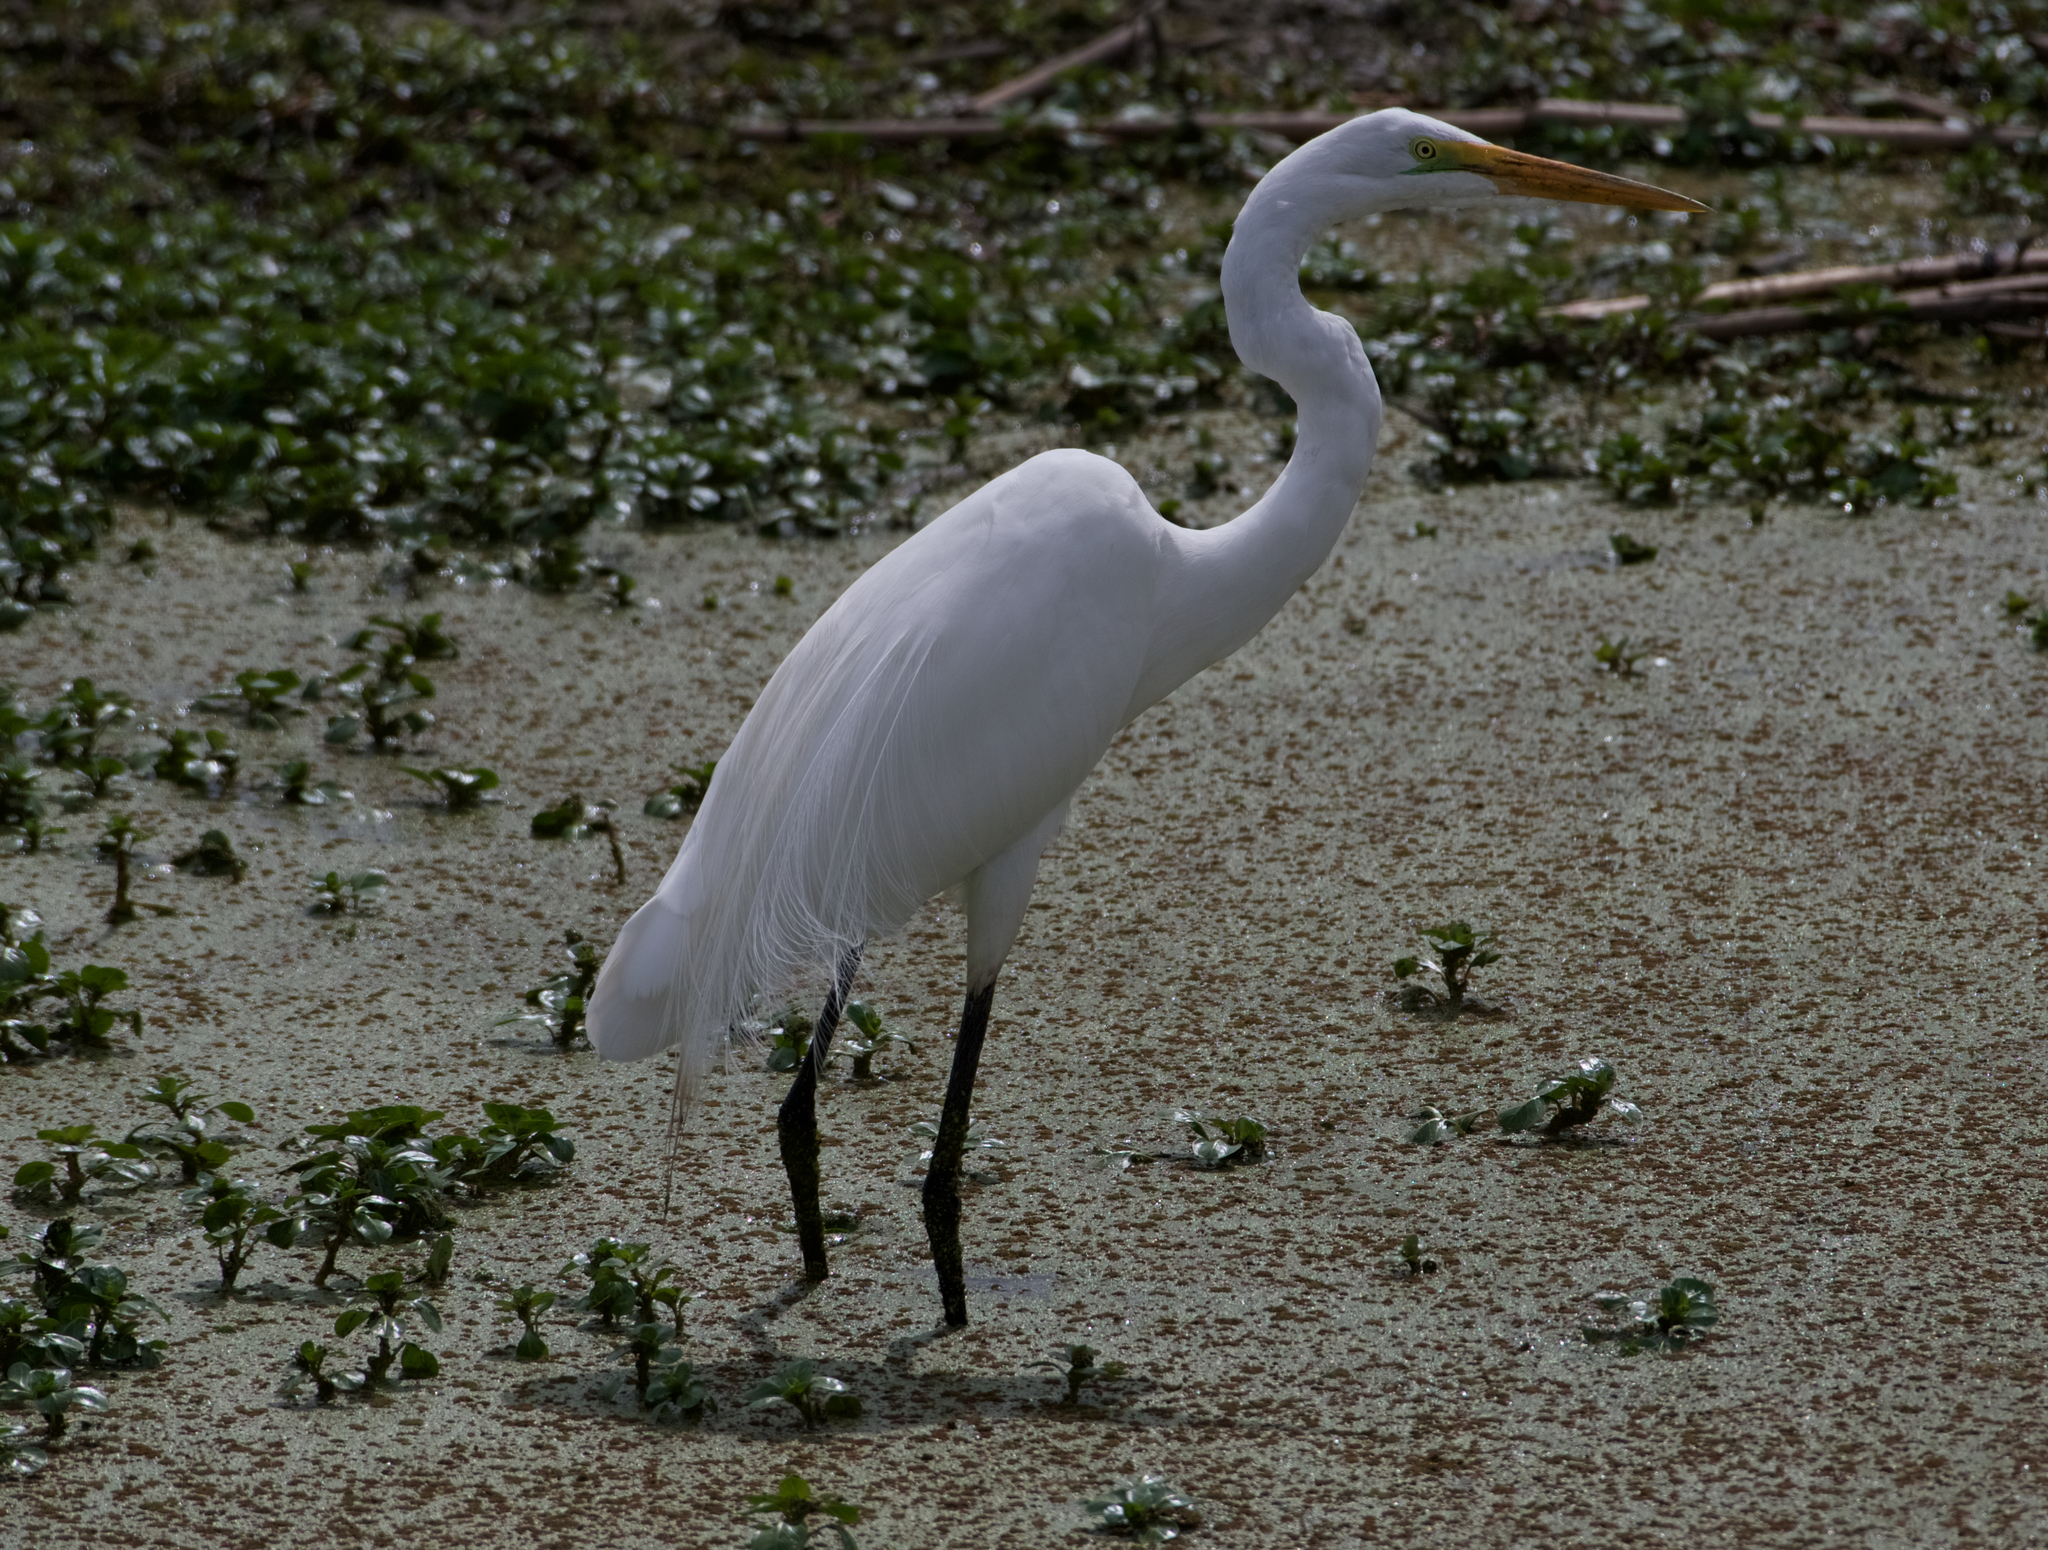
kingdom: Animalia
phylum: Chordata
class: Aves
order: Pelecaniformes
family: Ardeidae
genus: Ardea
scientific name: Ardea alba
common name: Great egret
